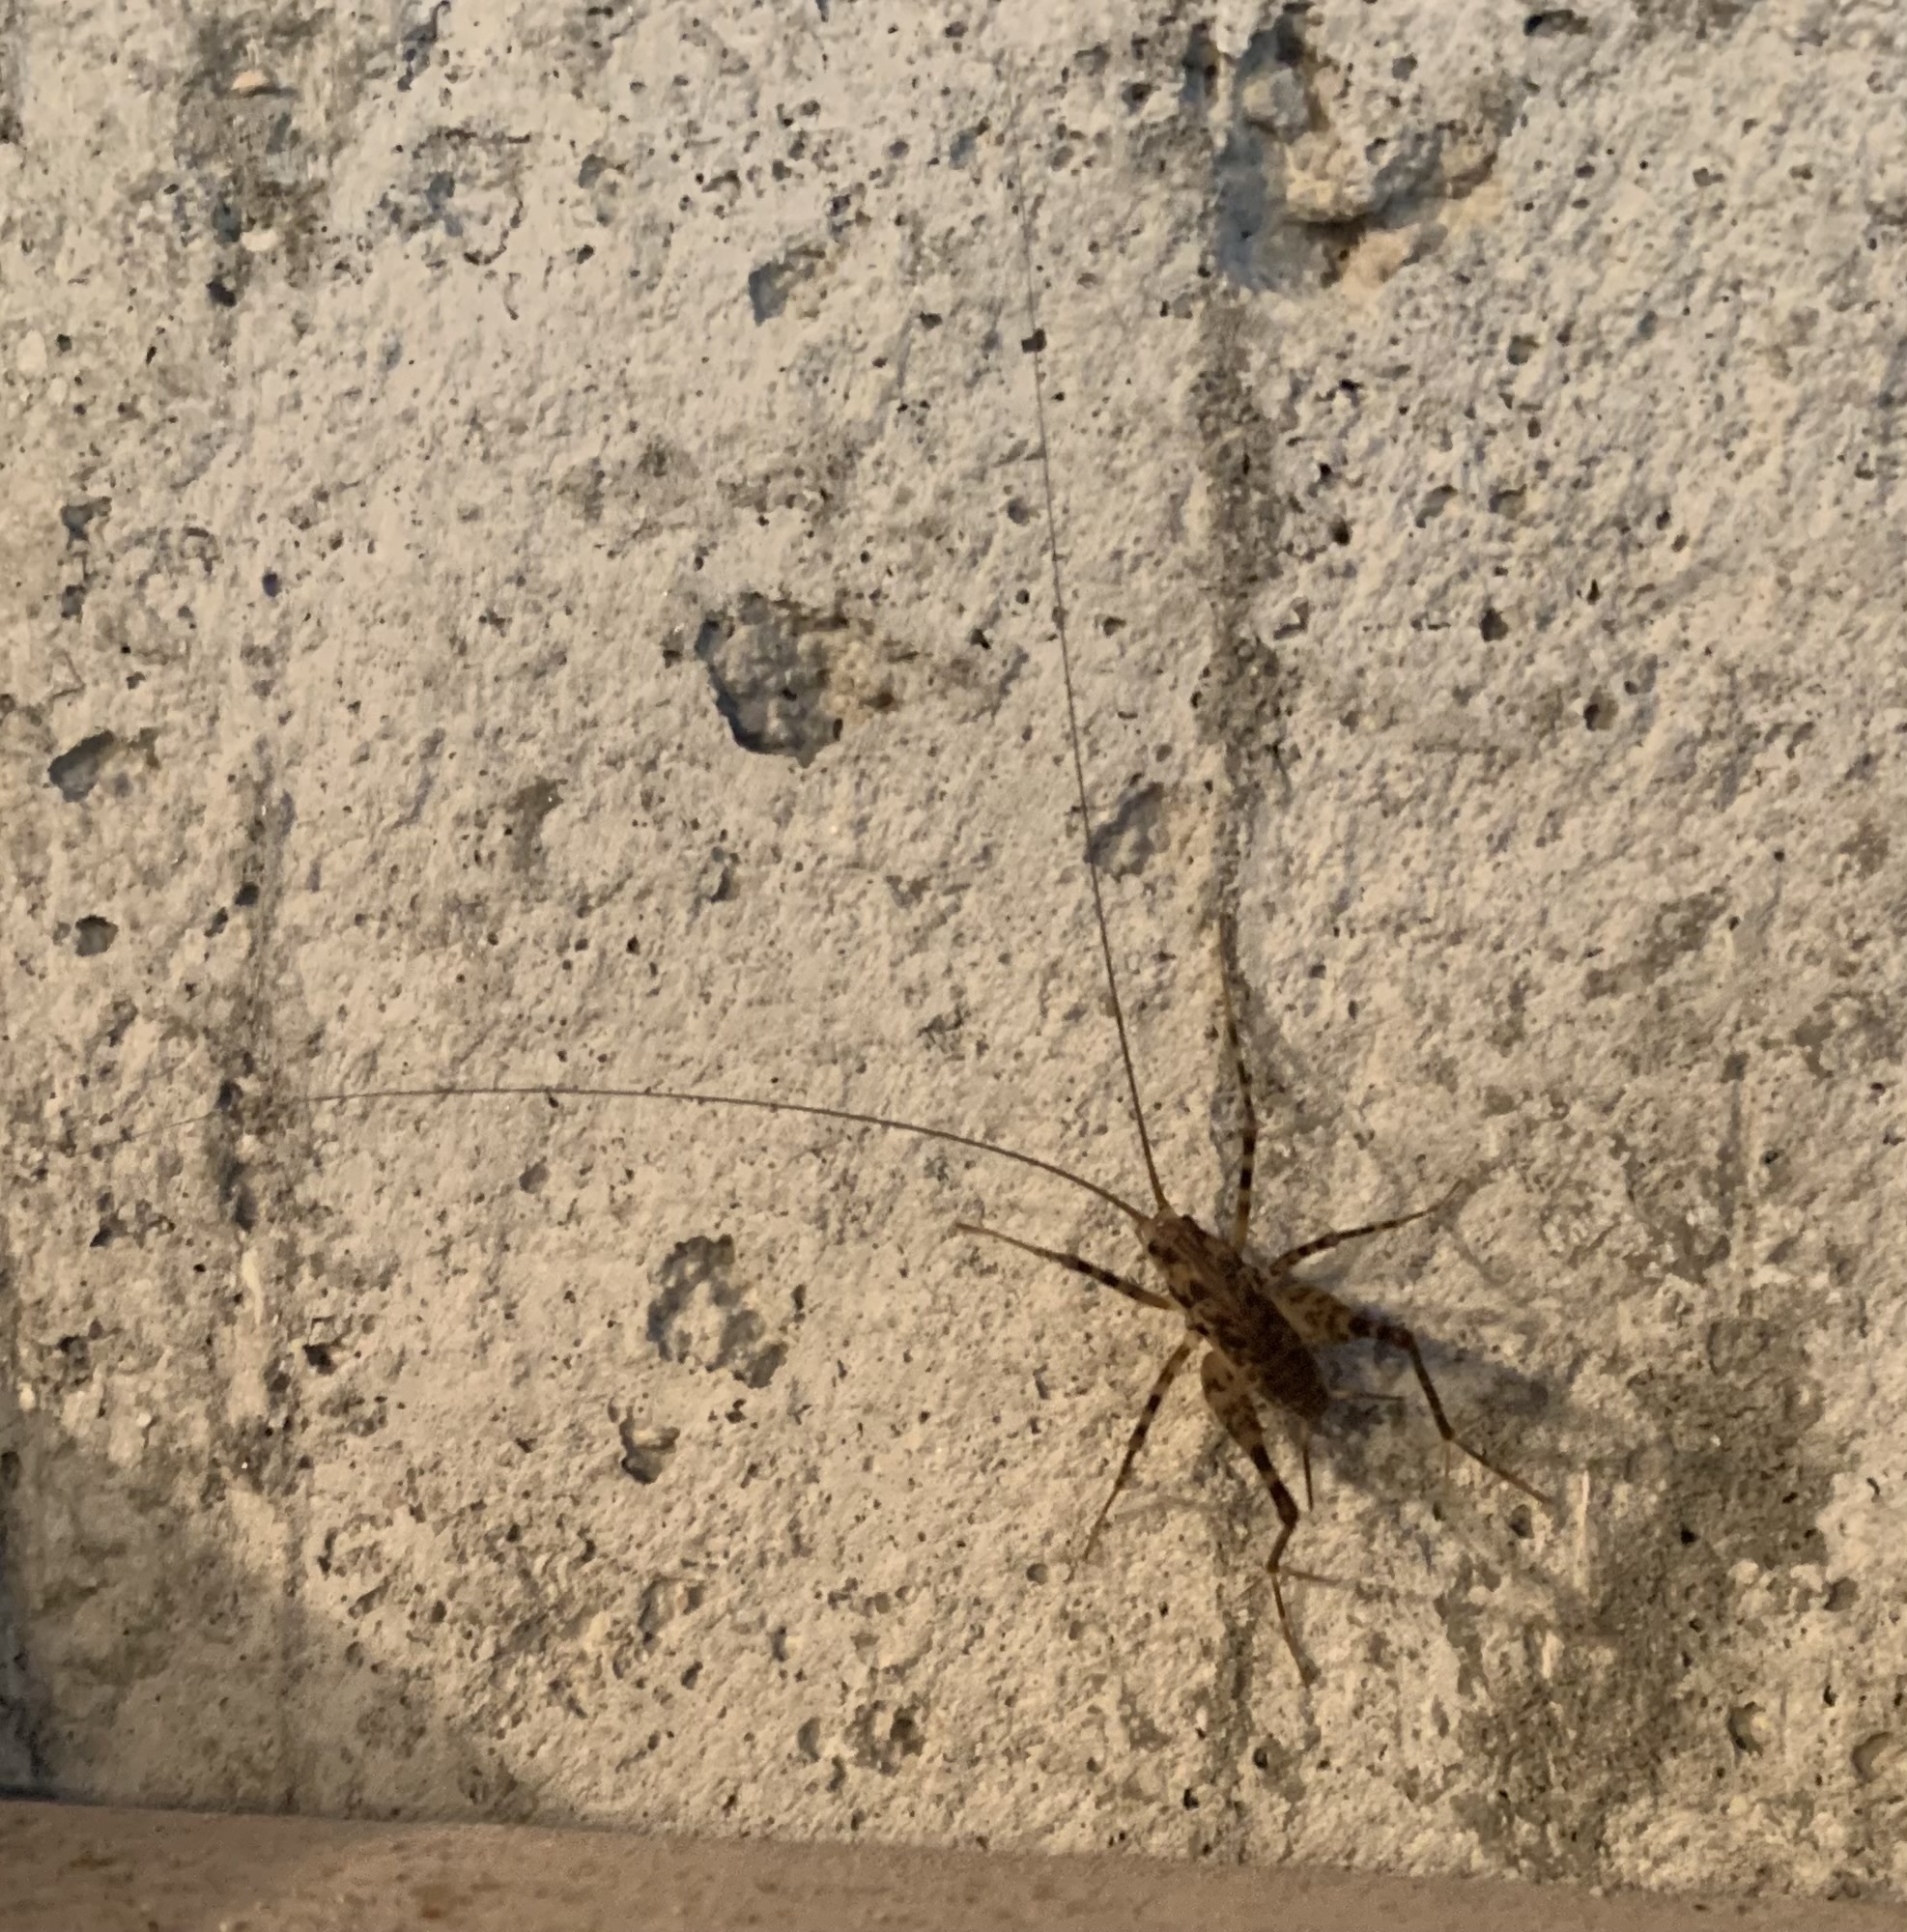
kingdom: Animalia
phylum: Arthropoda
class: Insecta
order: Orthoptera
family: Rhaphidophoridae
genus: Diestrammena
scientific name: Diestrammena japanica
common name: Japanese camel cricket
